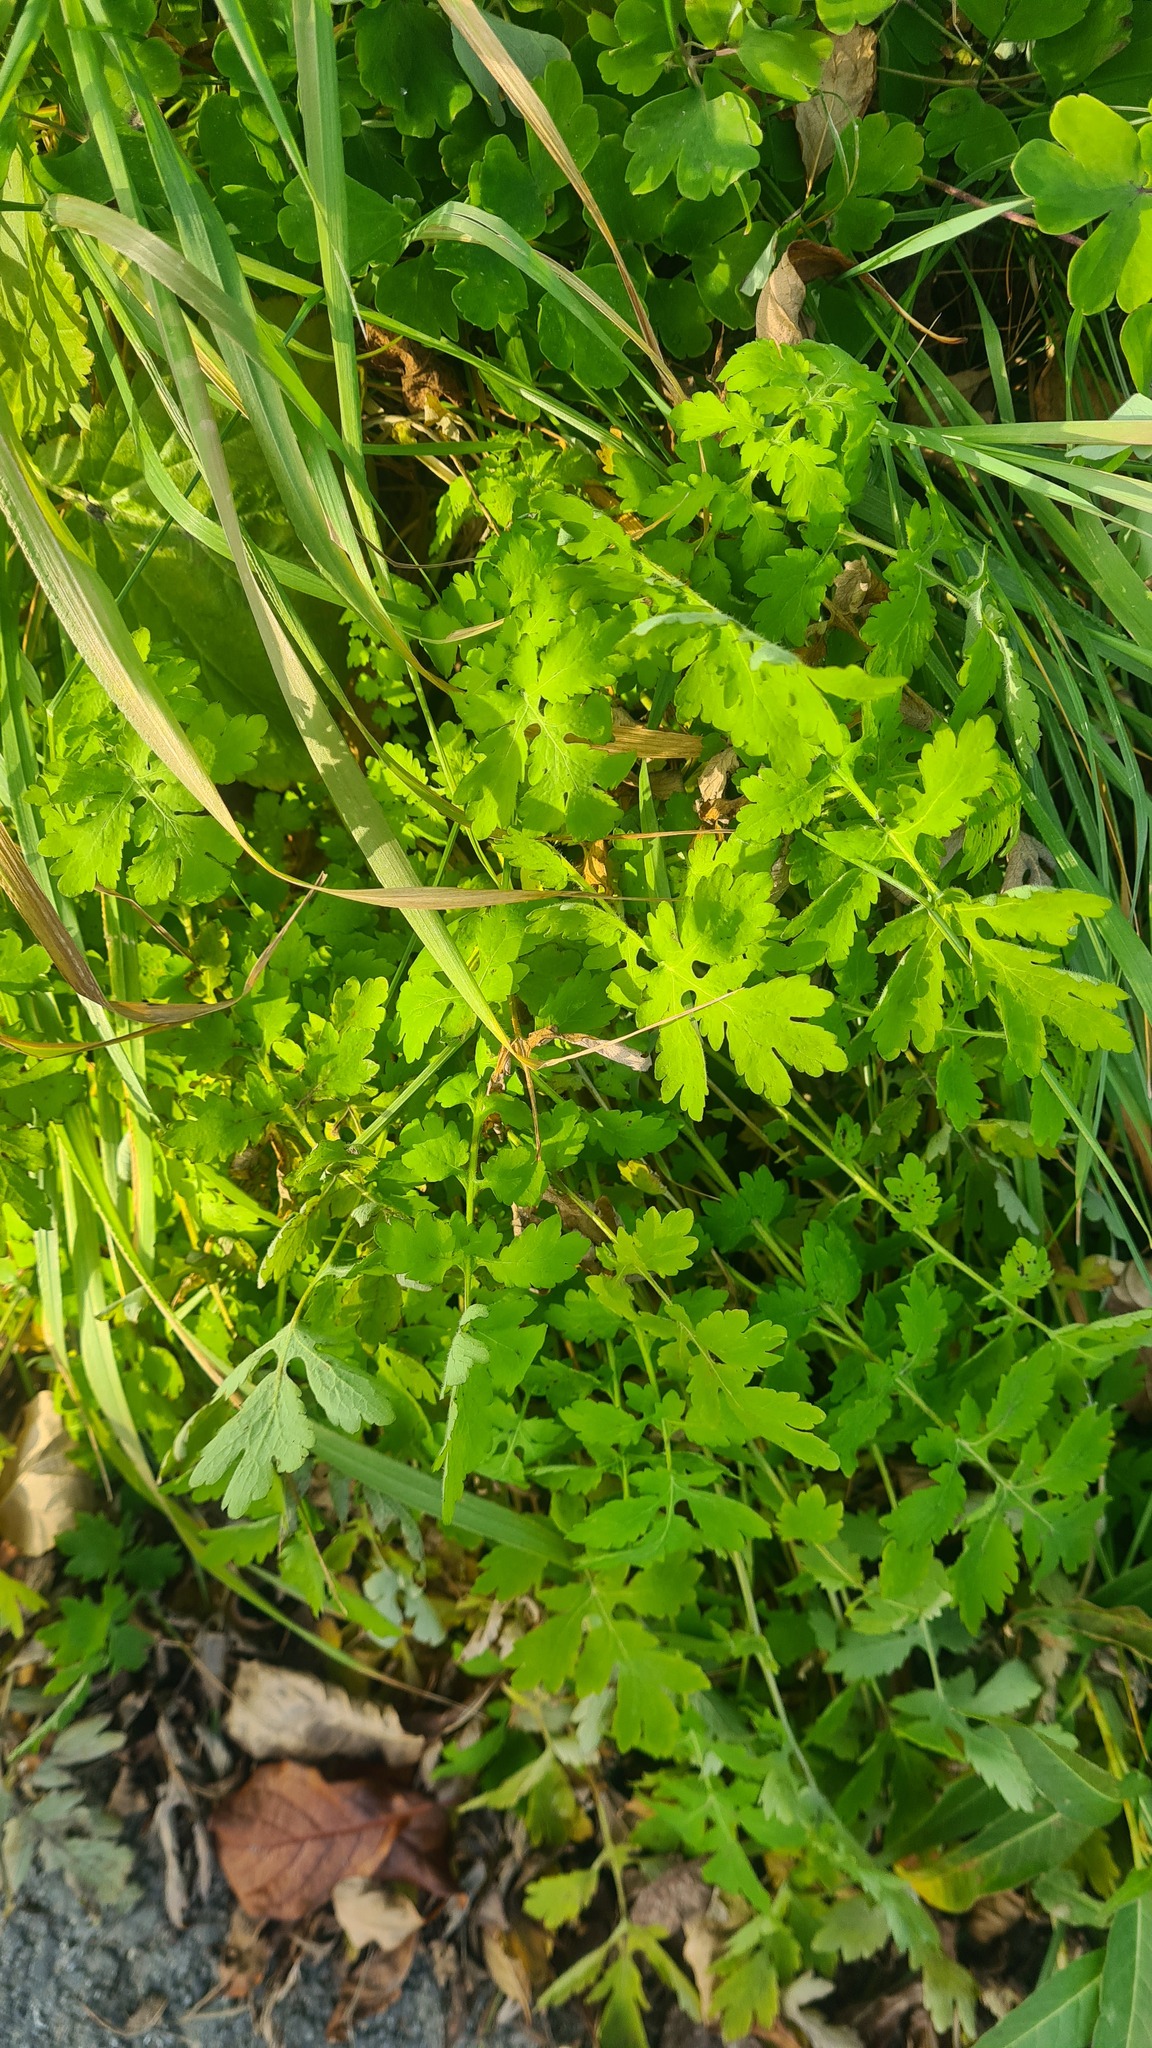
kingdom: Plantae
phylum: Tracheophyta
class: Magnoliopsida
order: Ranunculales
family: Papaveraceae
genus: Chelidonium
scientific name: Chelidonium majus
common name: Greater celandine
